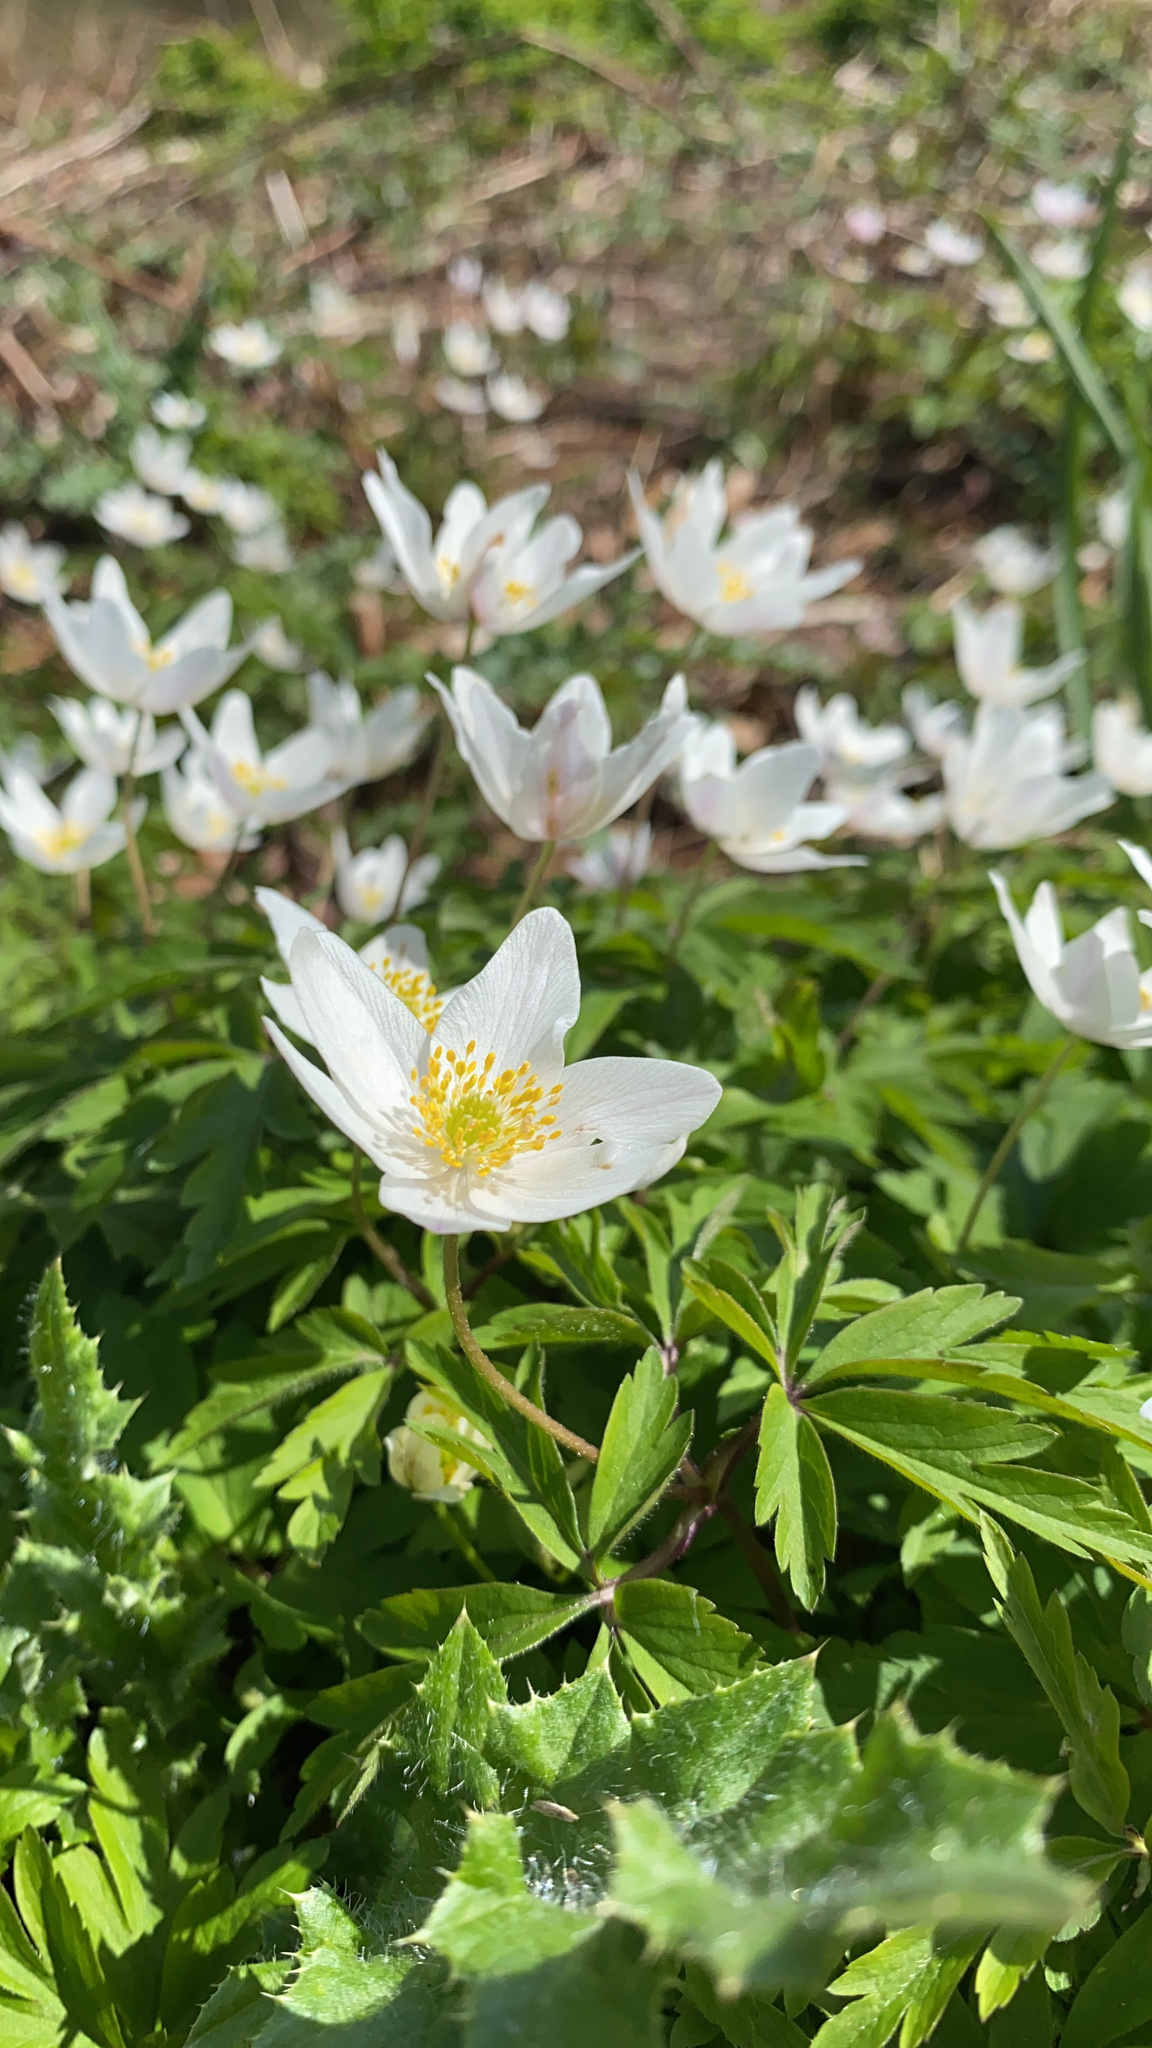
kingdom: Plantae
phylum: Tracheophyta
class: Magnoliopsida
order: Ranunculales
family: Ranunculaceae
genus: Anemone
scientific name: Anemone nemorosa
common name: Wood anemone
